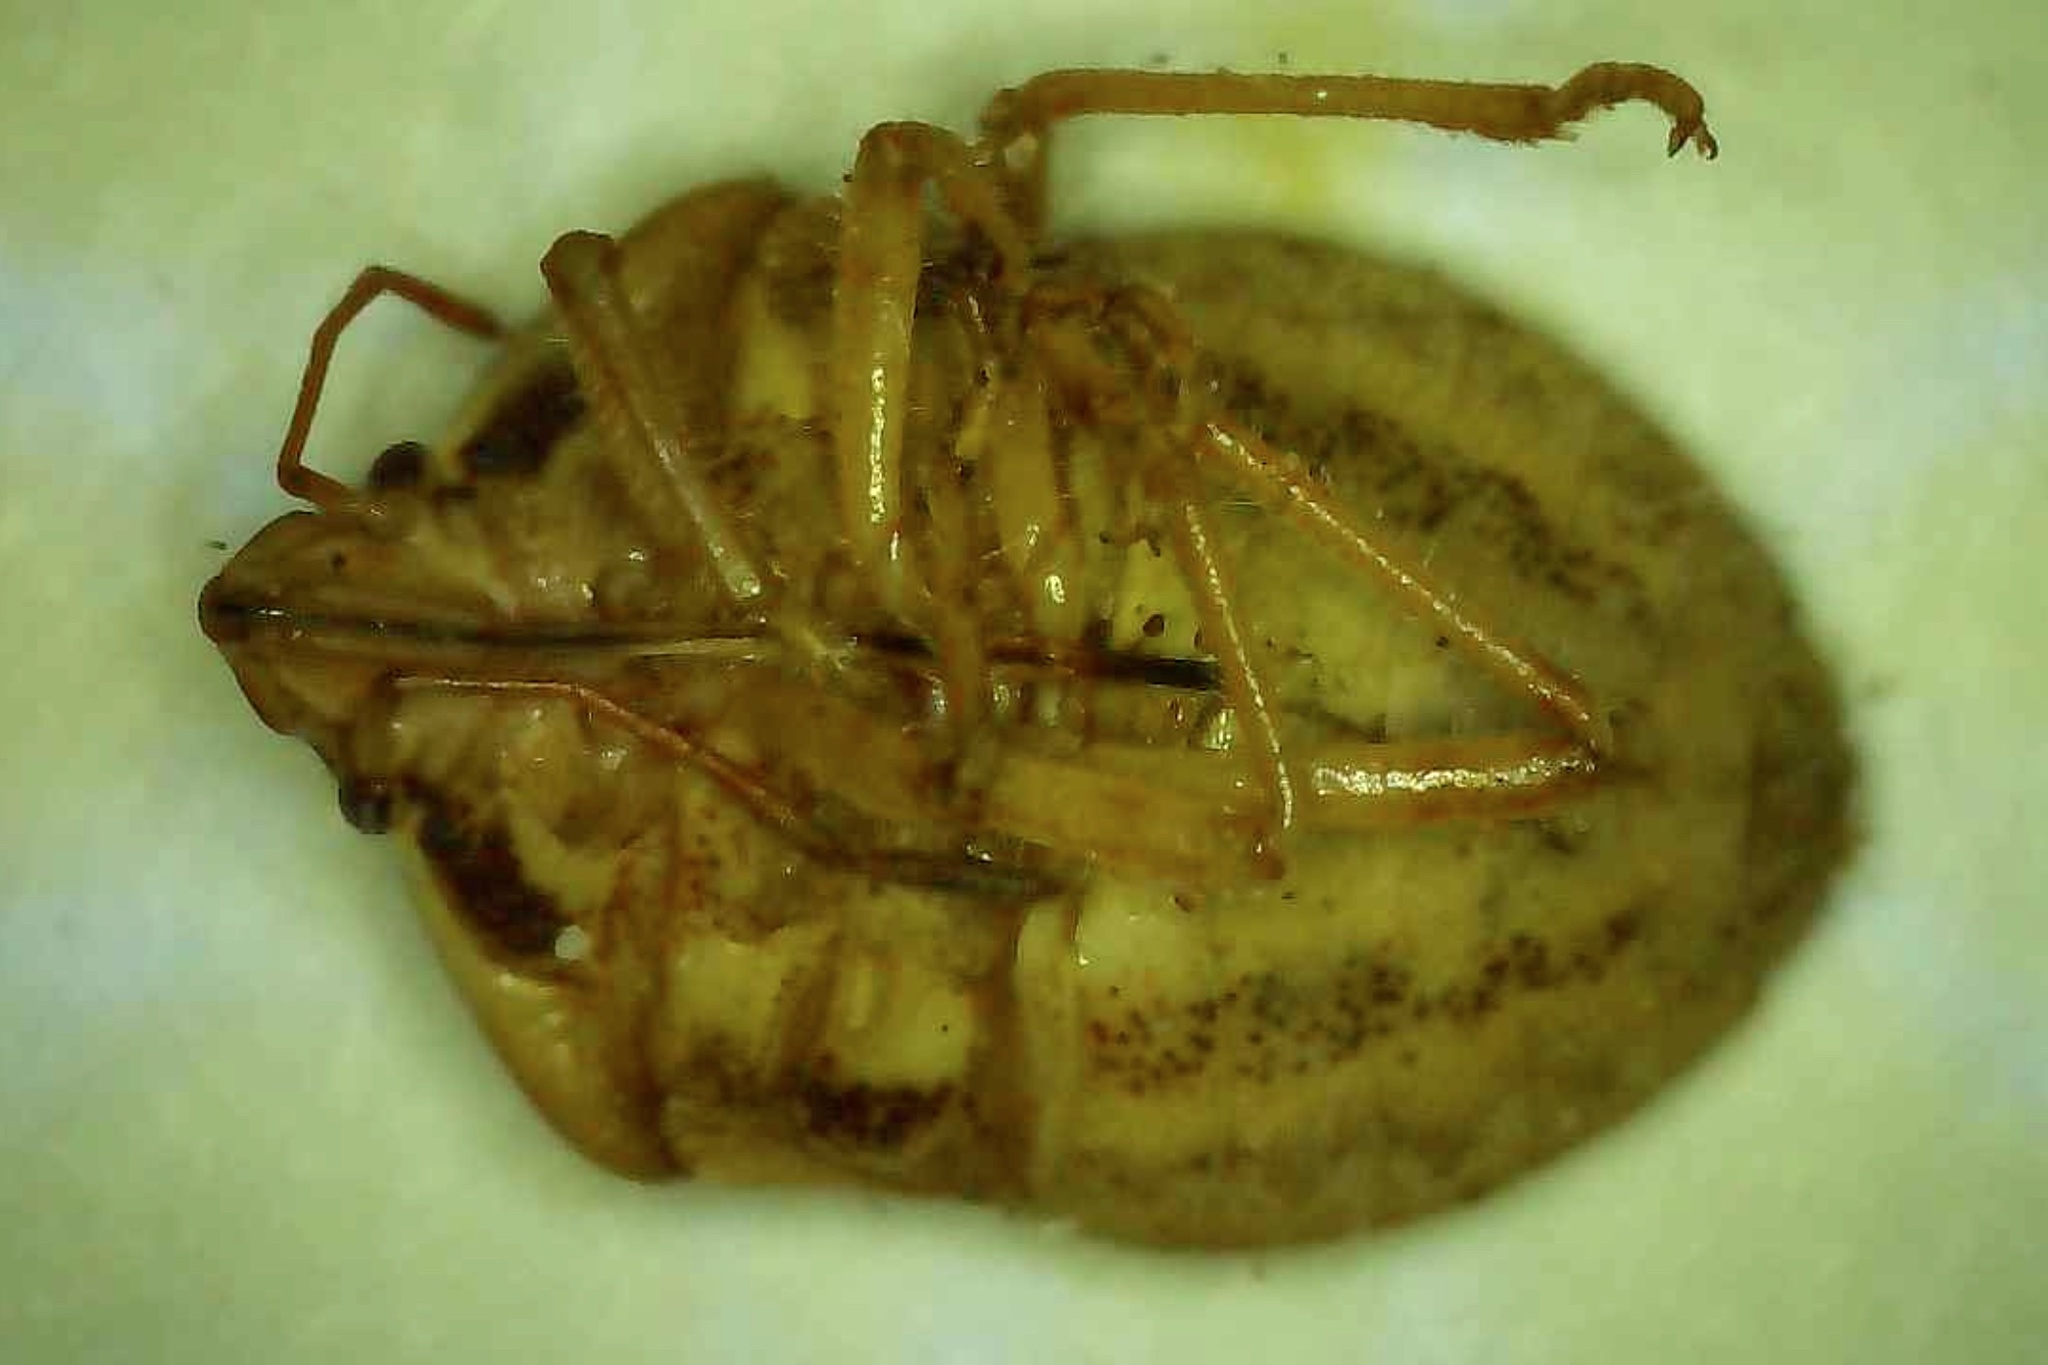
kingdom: Animalia
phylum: Arthropoda
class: Insecta
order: Hemiptera
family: Pentatomidae
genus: Trichopepla
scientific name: Trichopepla semivittata
